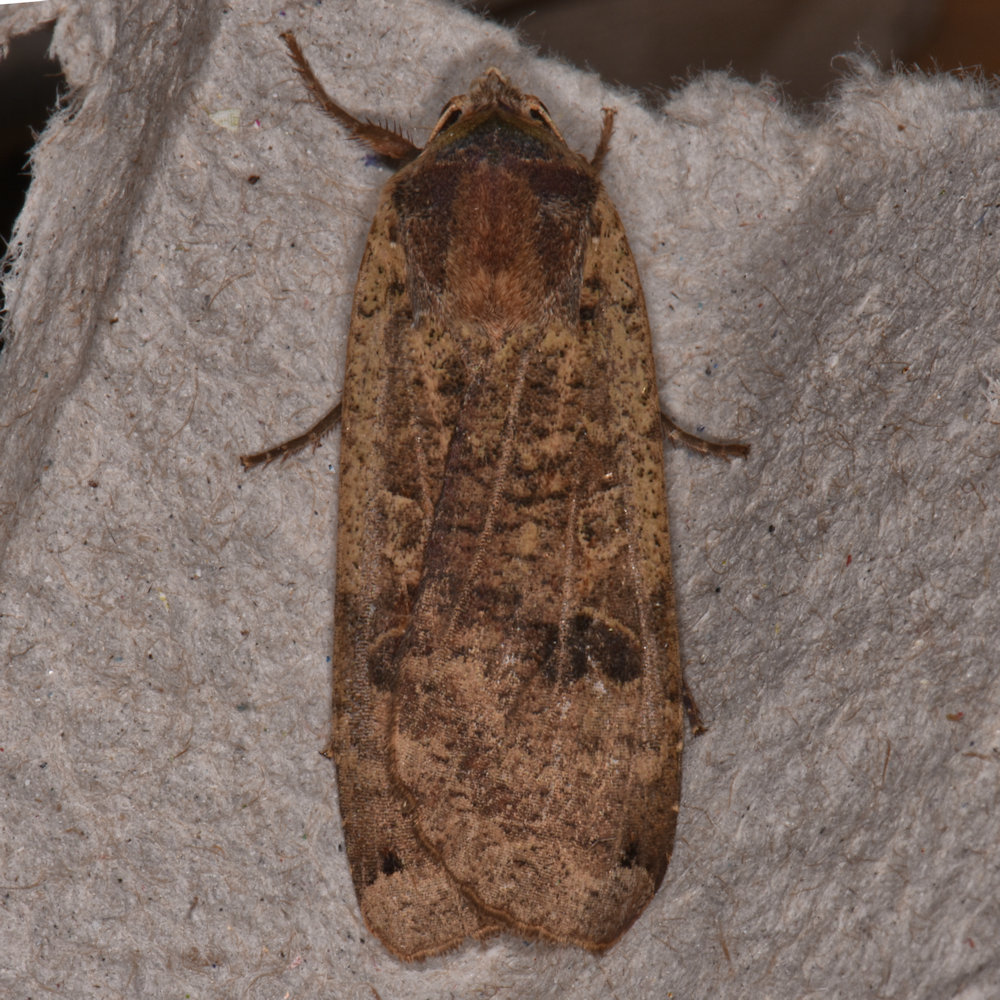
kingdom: Animalia
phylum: Arthropoda
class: Insecta
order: Lepidoptera
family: Noctuidae
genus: Noctua
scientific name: Noctua pronuba
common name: Large yellow underwing
